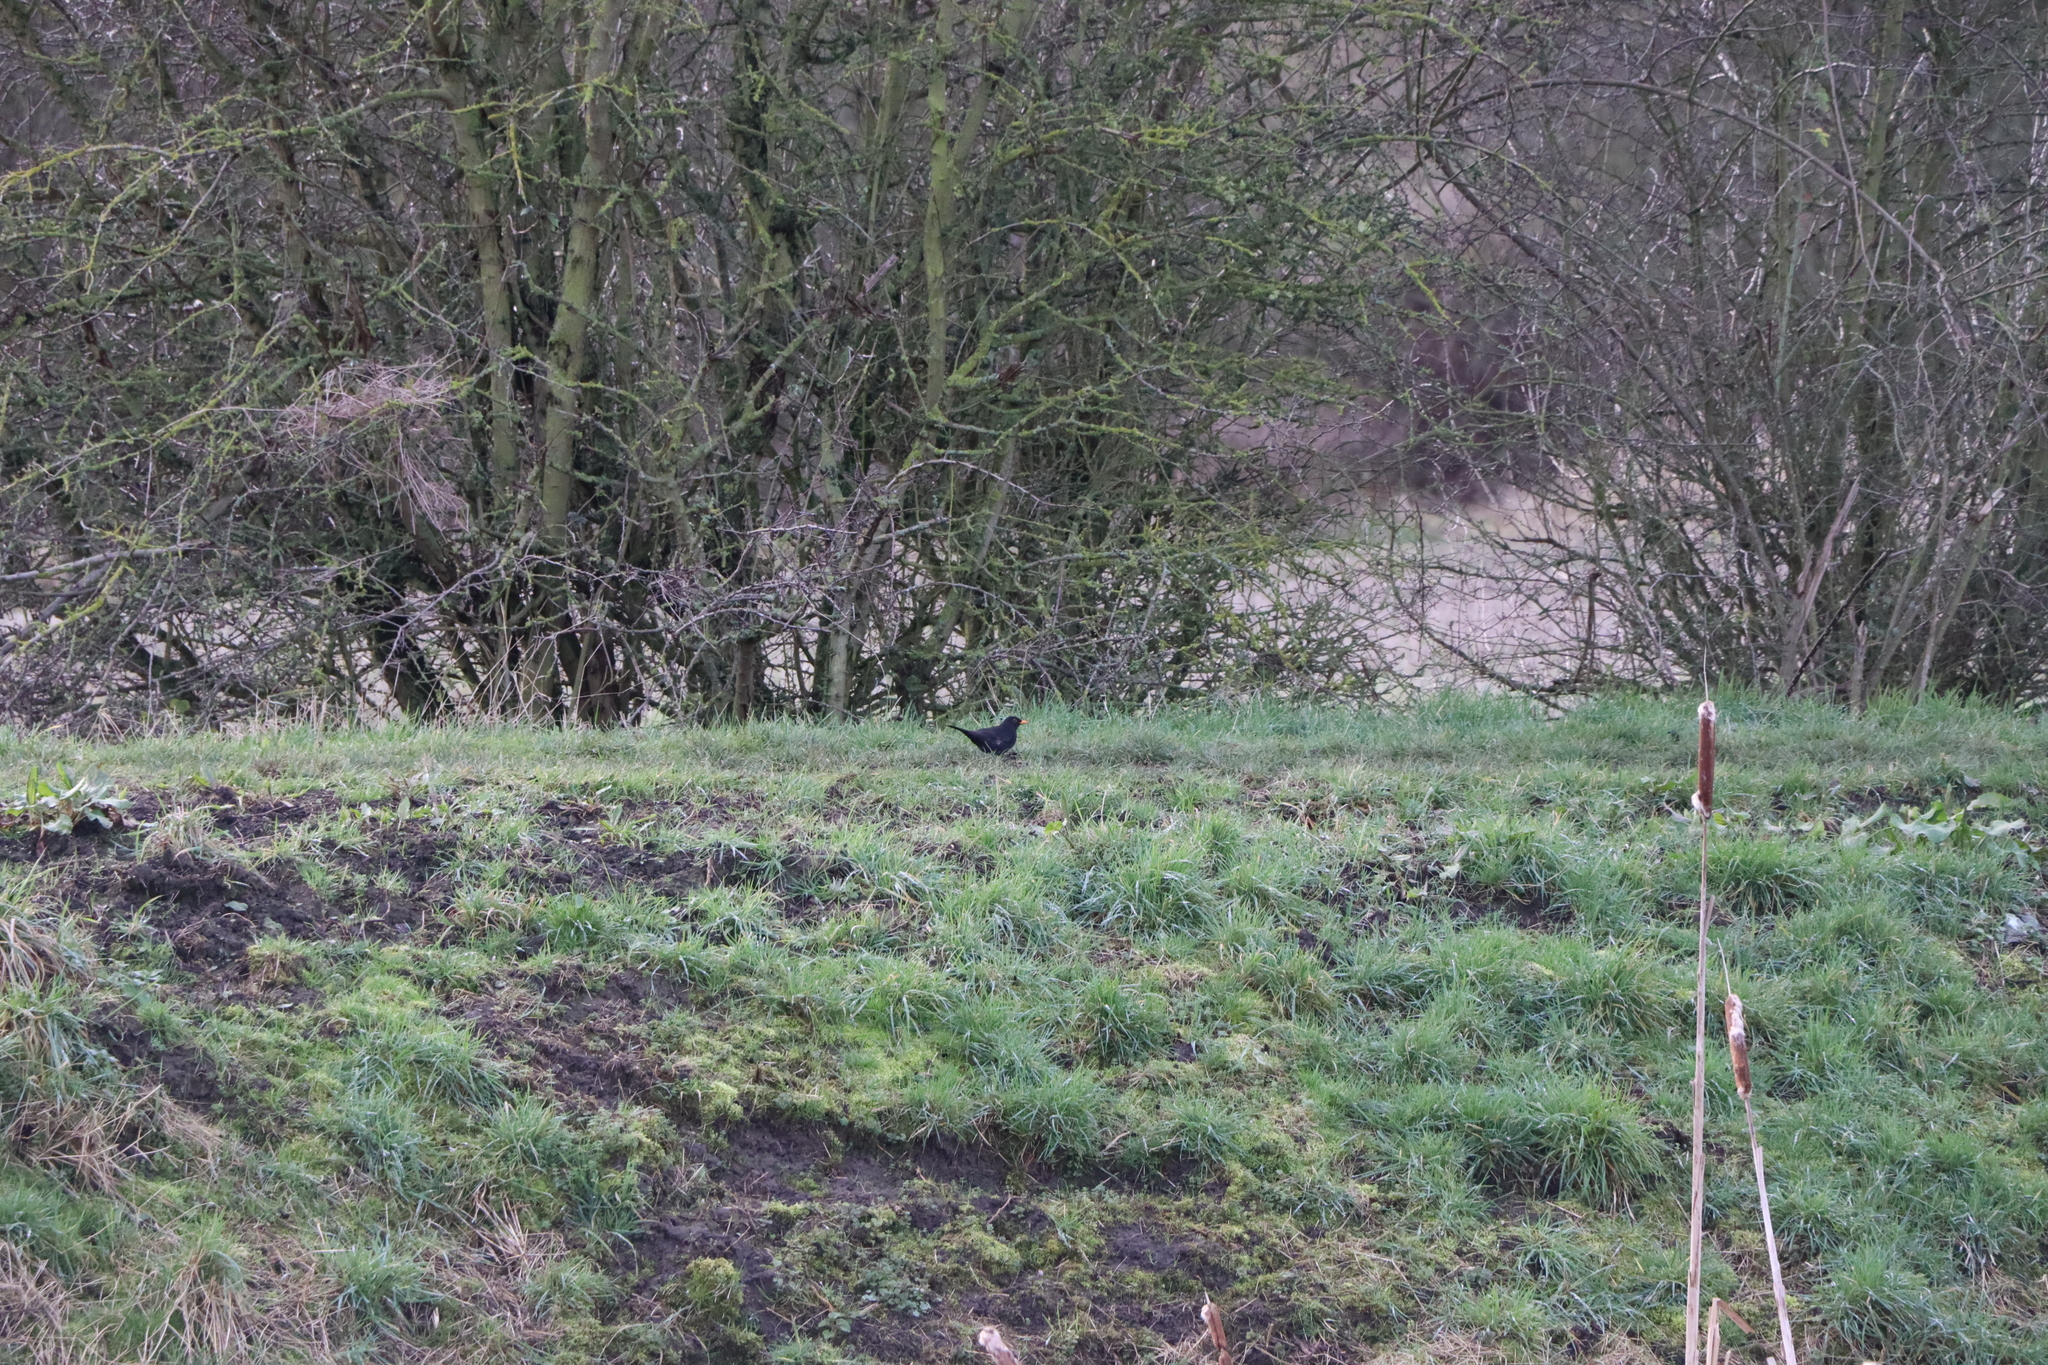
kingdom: Animalia
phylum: Chordata
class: Aves
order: Passeriformes
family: Turdidae
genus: Turdus
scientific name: Turdus merula
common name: Common blackbird
